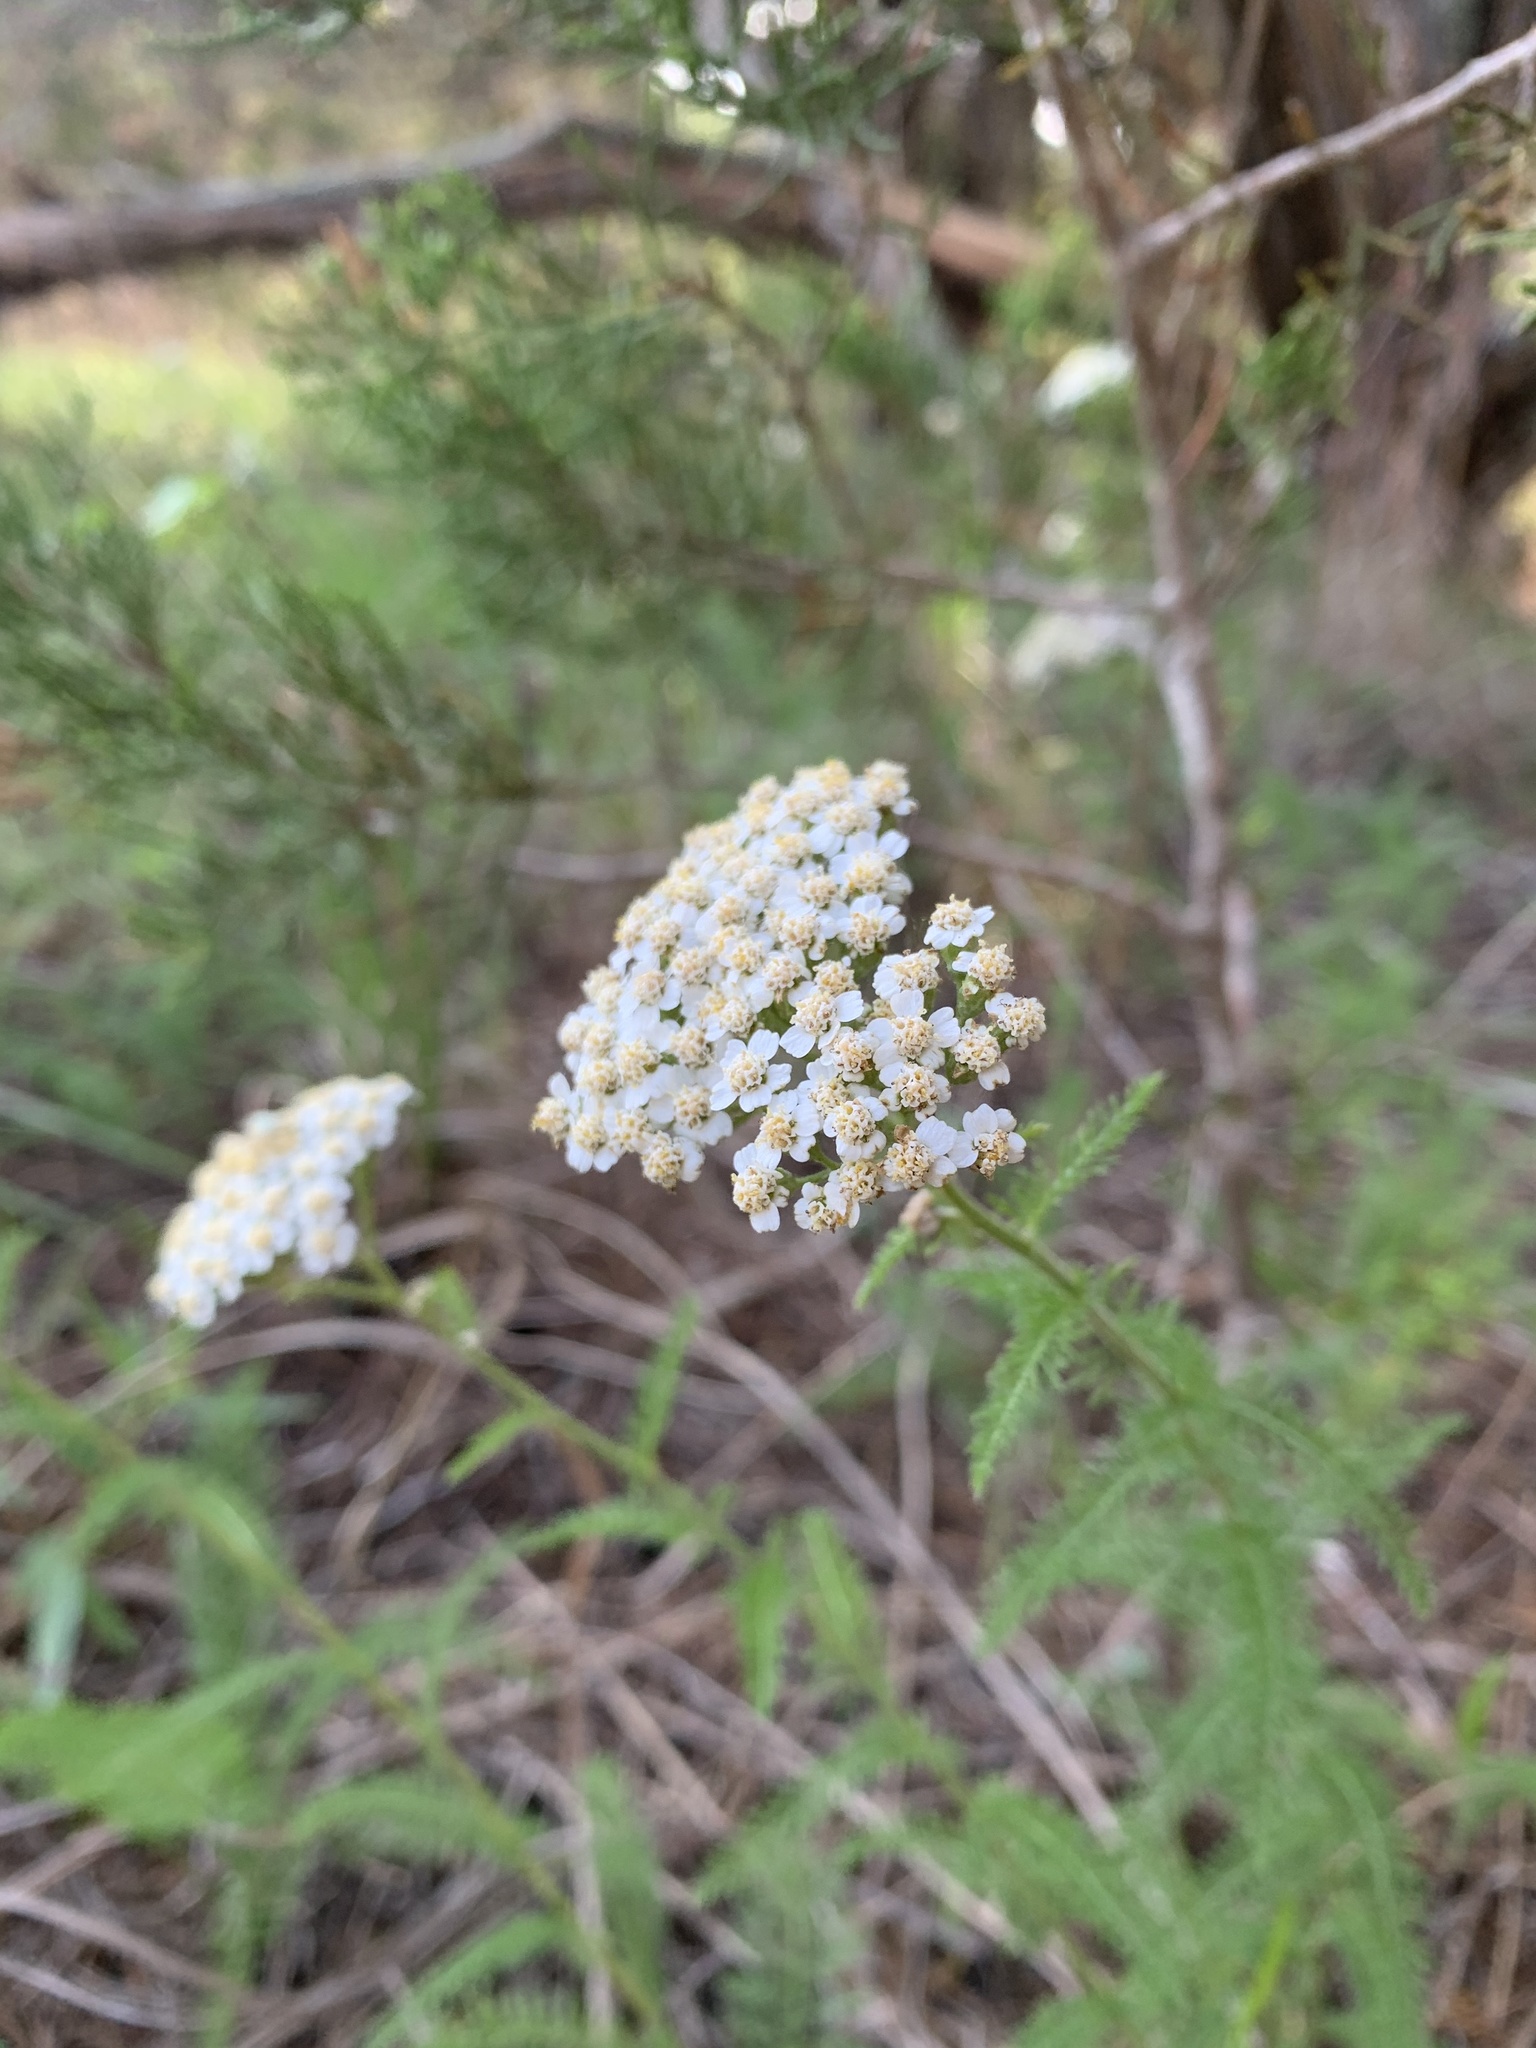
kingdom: Plantae
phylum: Tracheophyta
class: Magnoliopsida
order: Asterales
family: Asteraceae
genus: Achillea
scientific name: Achillea millefolium
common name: Yarrow
